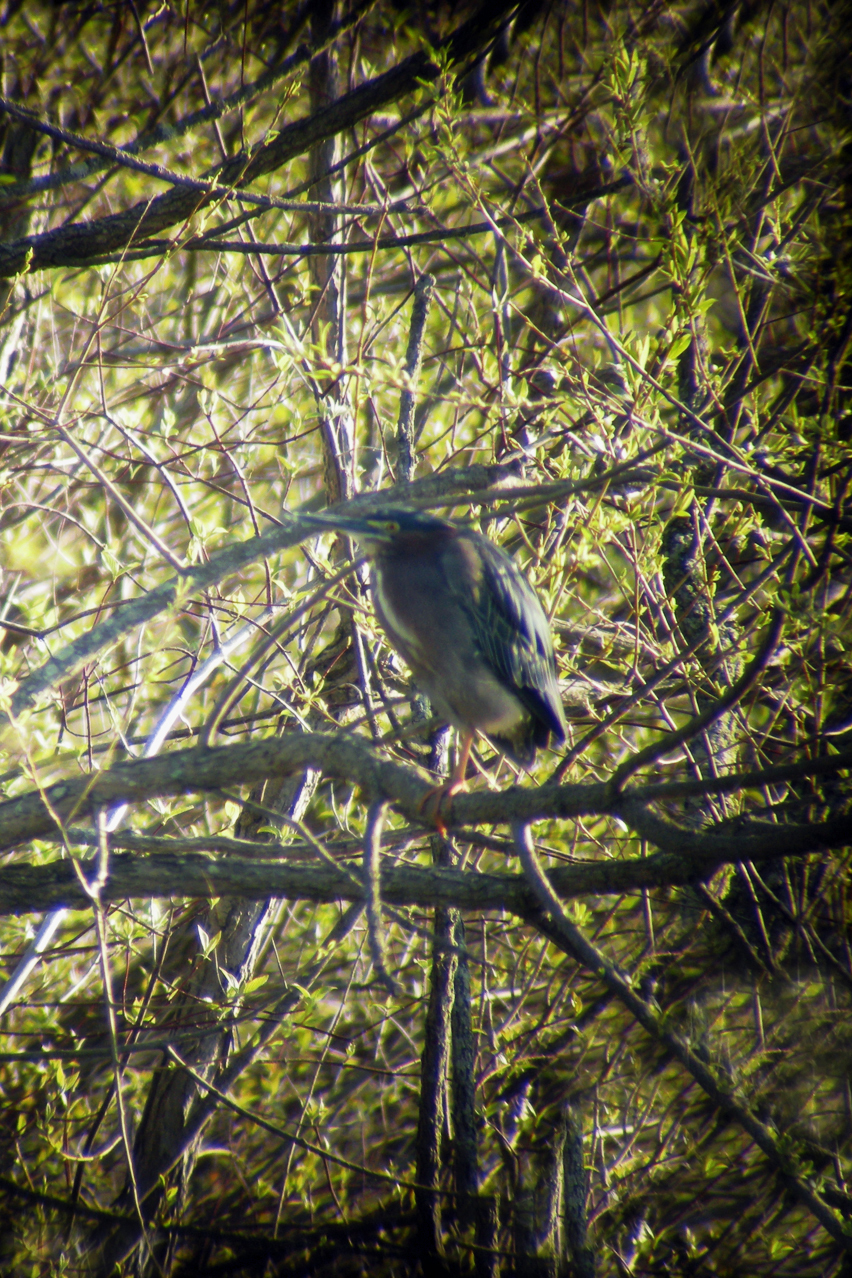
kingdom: Animalia
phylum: Chordata
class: Aves
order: Pelecaniformes
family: Ardeidae
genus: Butorides
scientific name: Butorides virescens
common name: Green heron
